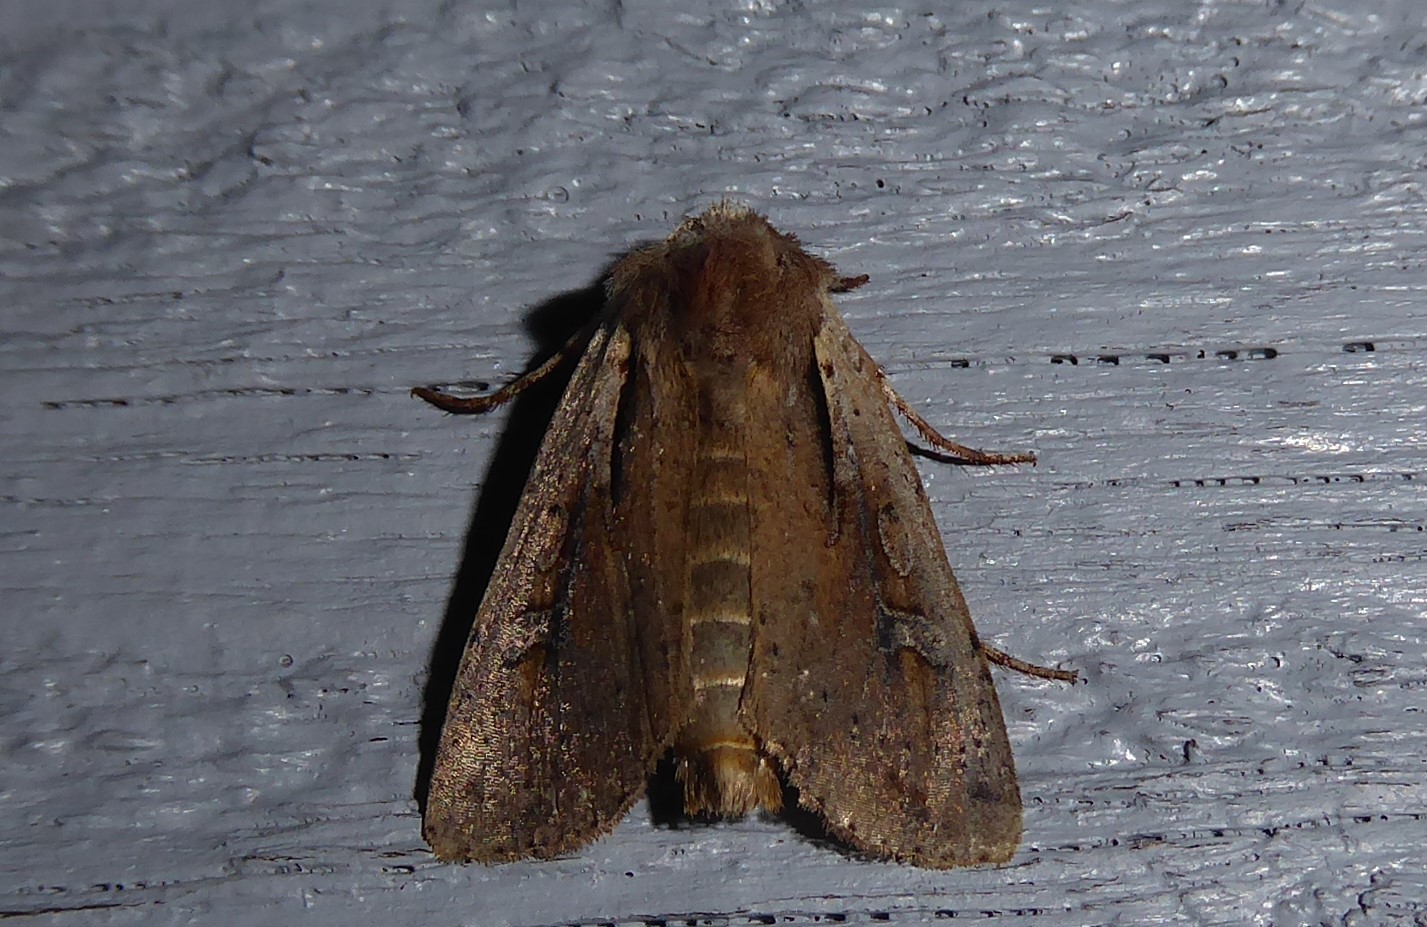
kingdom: Animalia
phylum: Arthropoda
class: Insecta
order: Lepidoptera
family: Noctuidae
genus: Ichneutica
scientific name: Ichneutica atristriga
